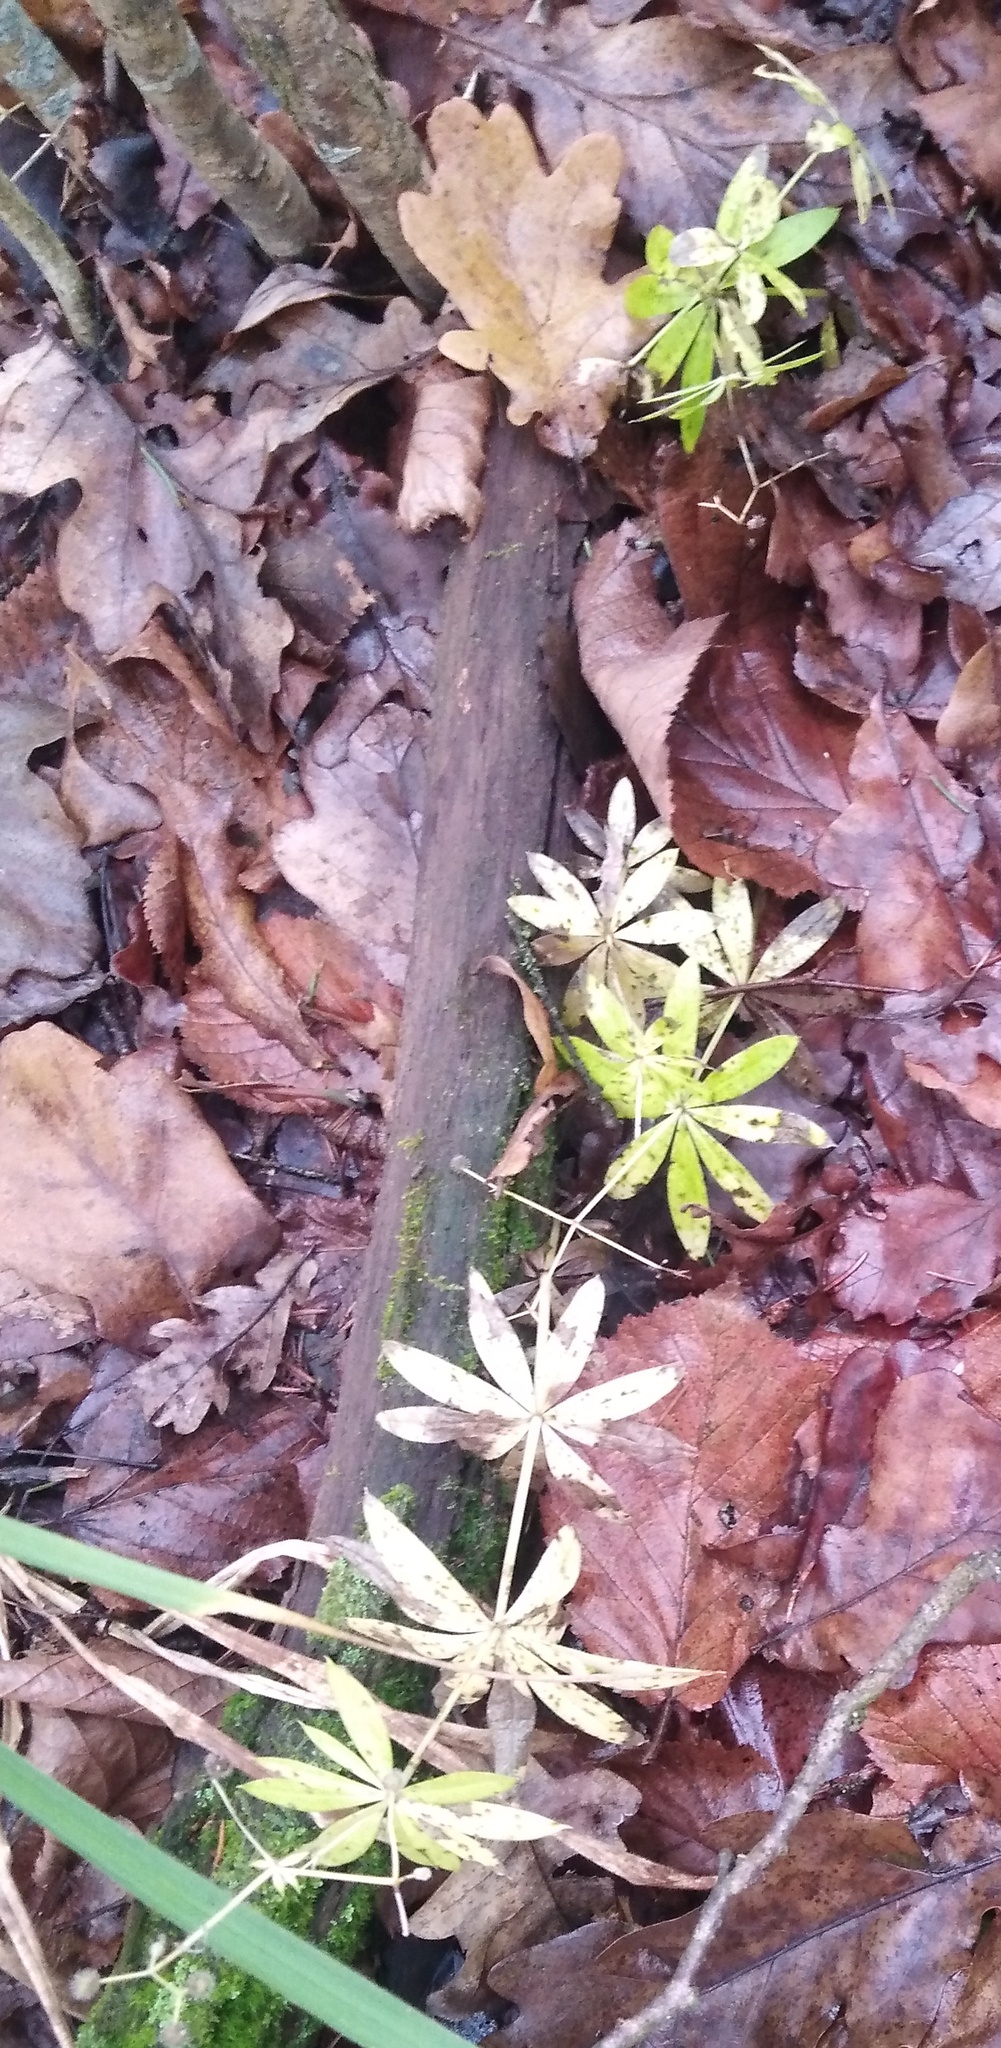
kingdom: Plantae
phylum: Tracheophyta
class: Magnoliopsida
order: Gentianales
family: Rubiaceae
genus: Galium
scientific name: Galium odoratum
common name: Sweet woodruff
